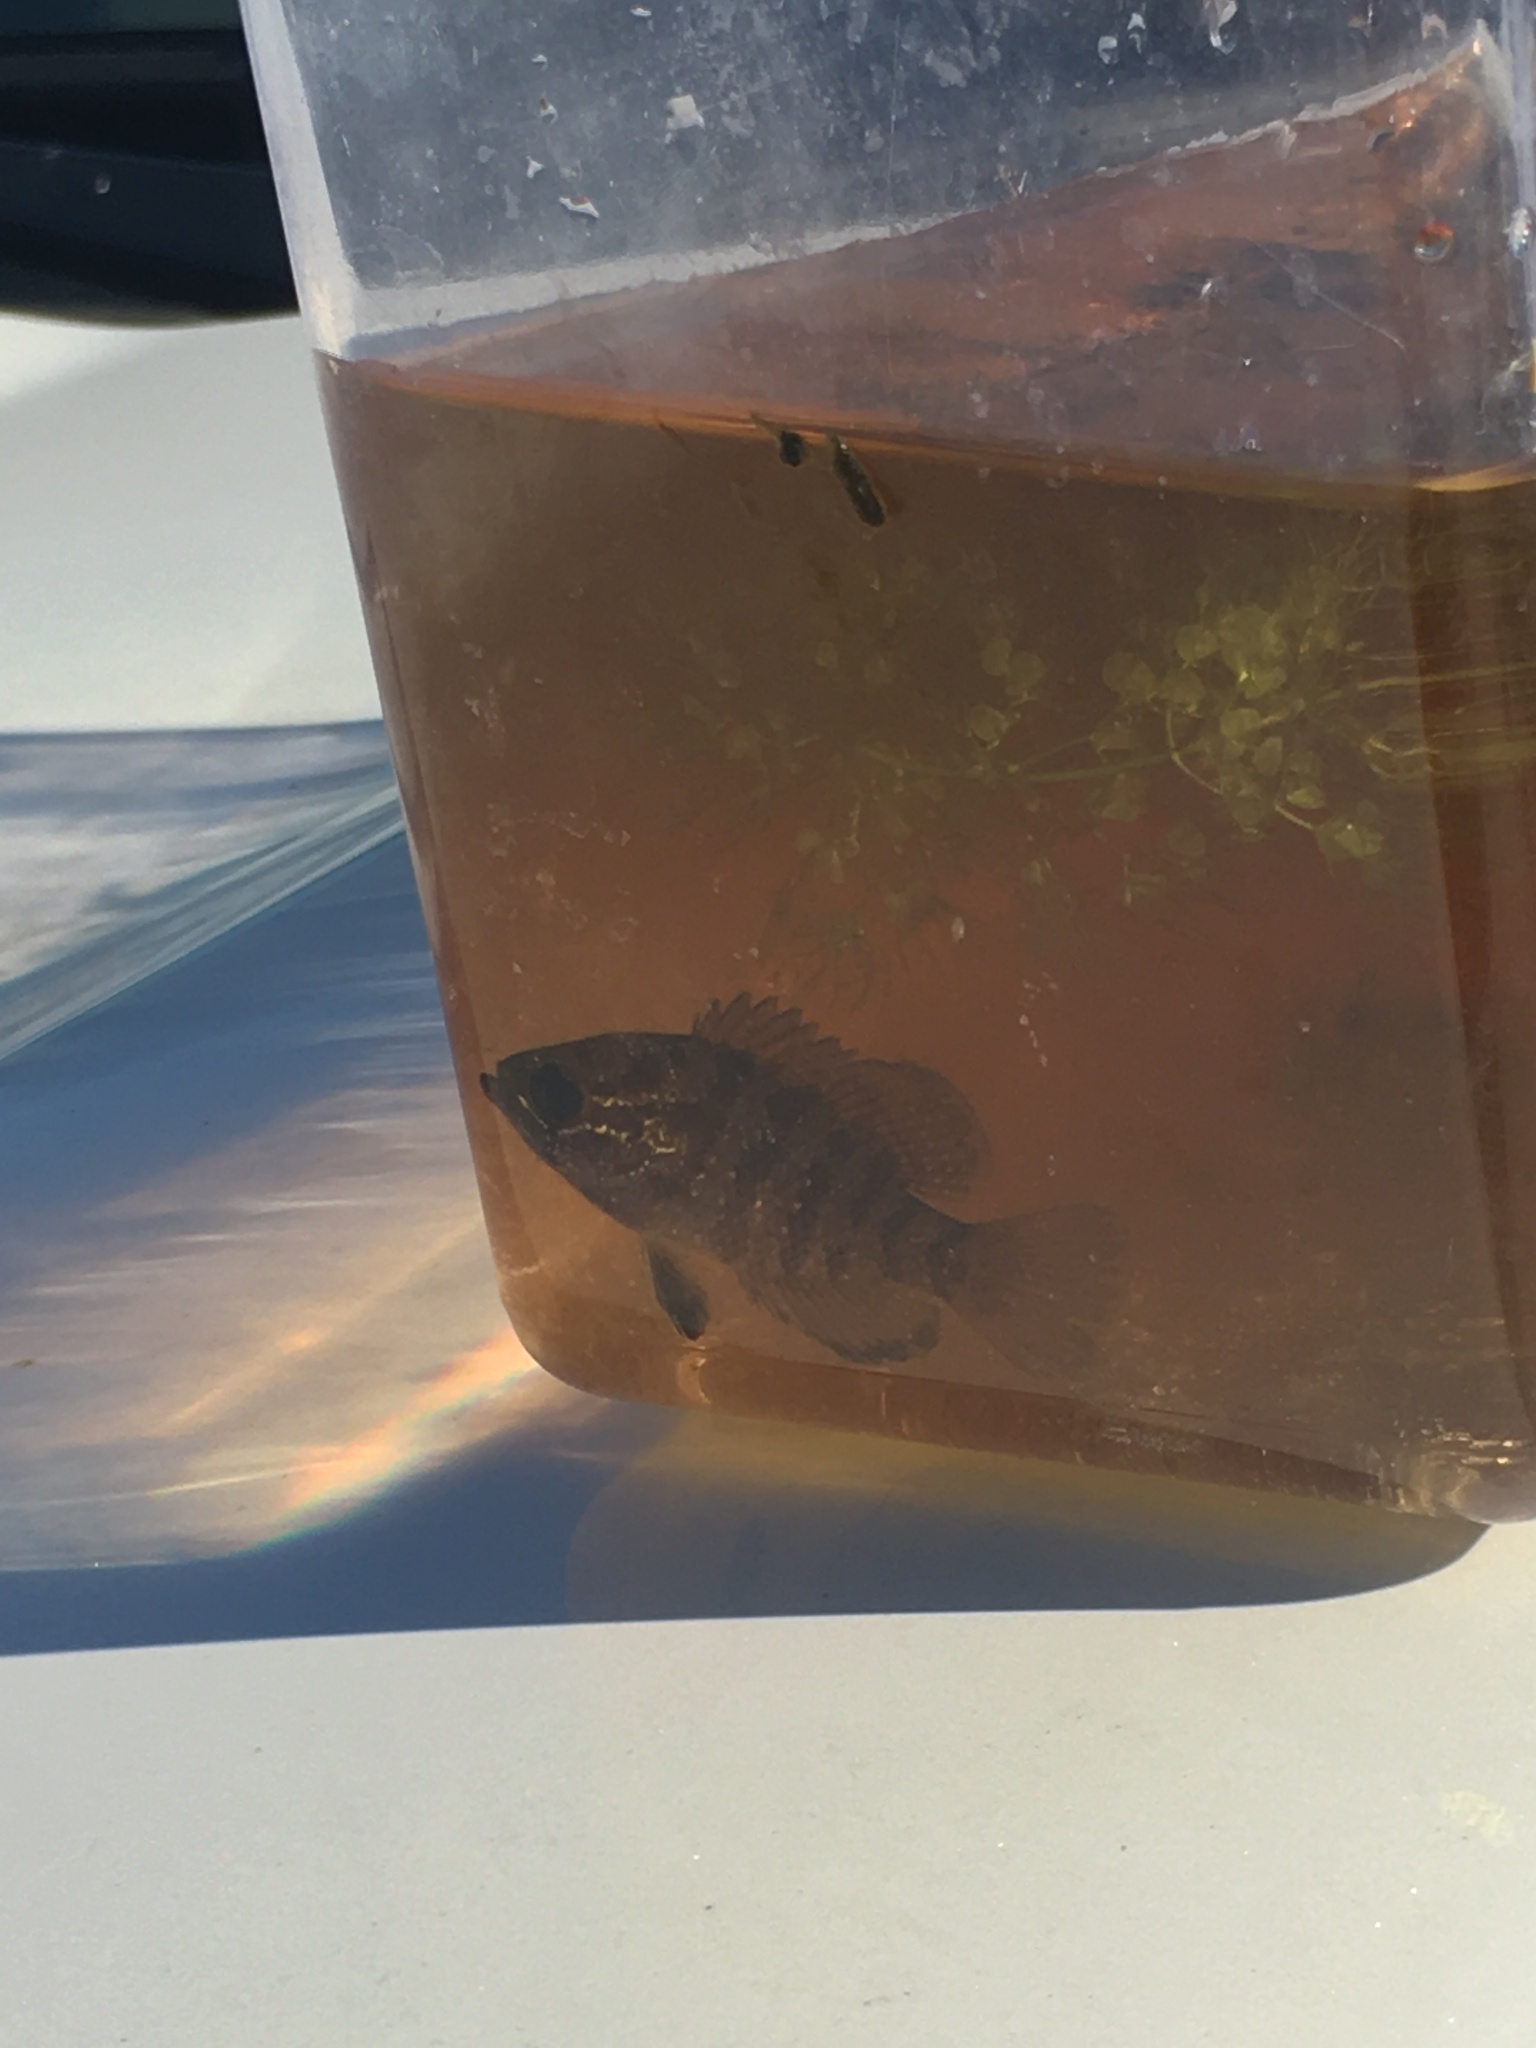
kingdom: Animalia
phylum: Chordata
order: Perciformes
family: Centrarchidae
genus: Enneacanthus
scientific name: Enneacanthus obesus
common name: Banded sunfish
